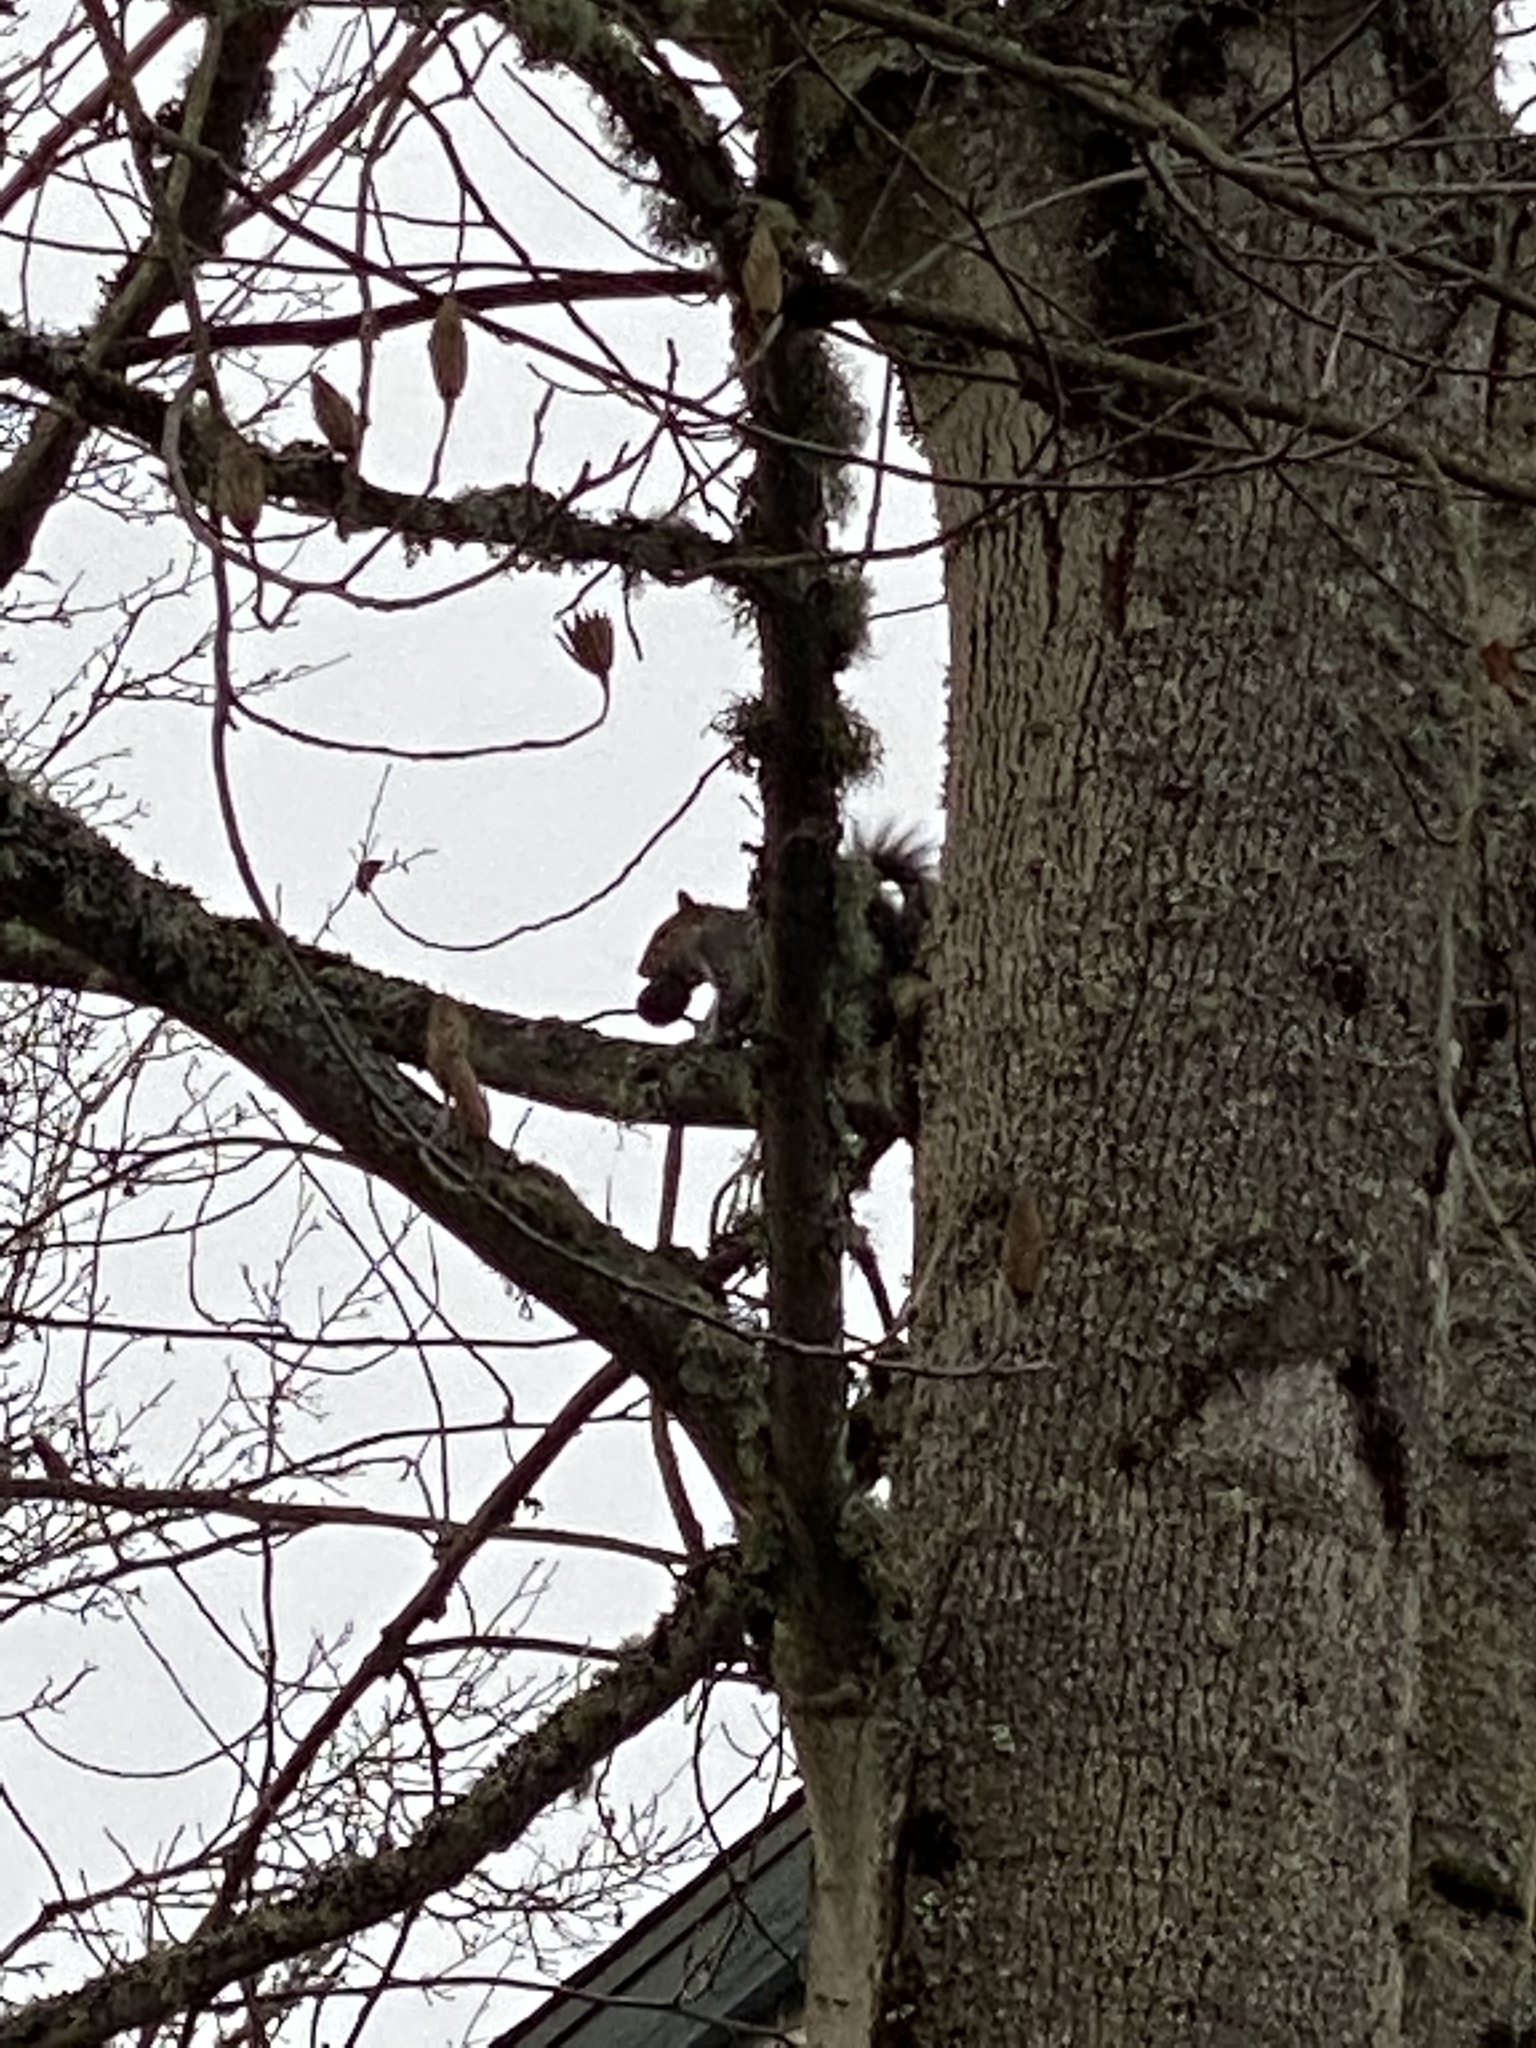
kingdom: Animalia
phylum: Chordata
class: Mammalia
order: Rodentia
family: Sciuridae
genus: Sciurus
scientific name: Sciurus carolinensis
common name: Eastern gray squirrel
